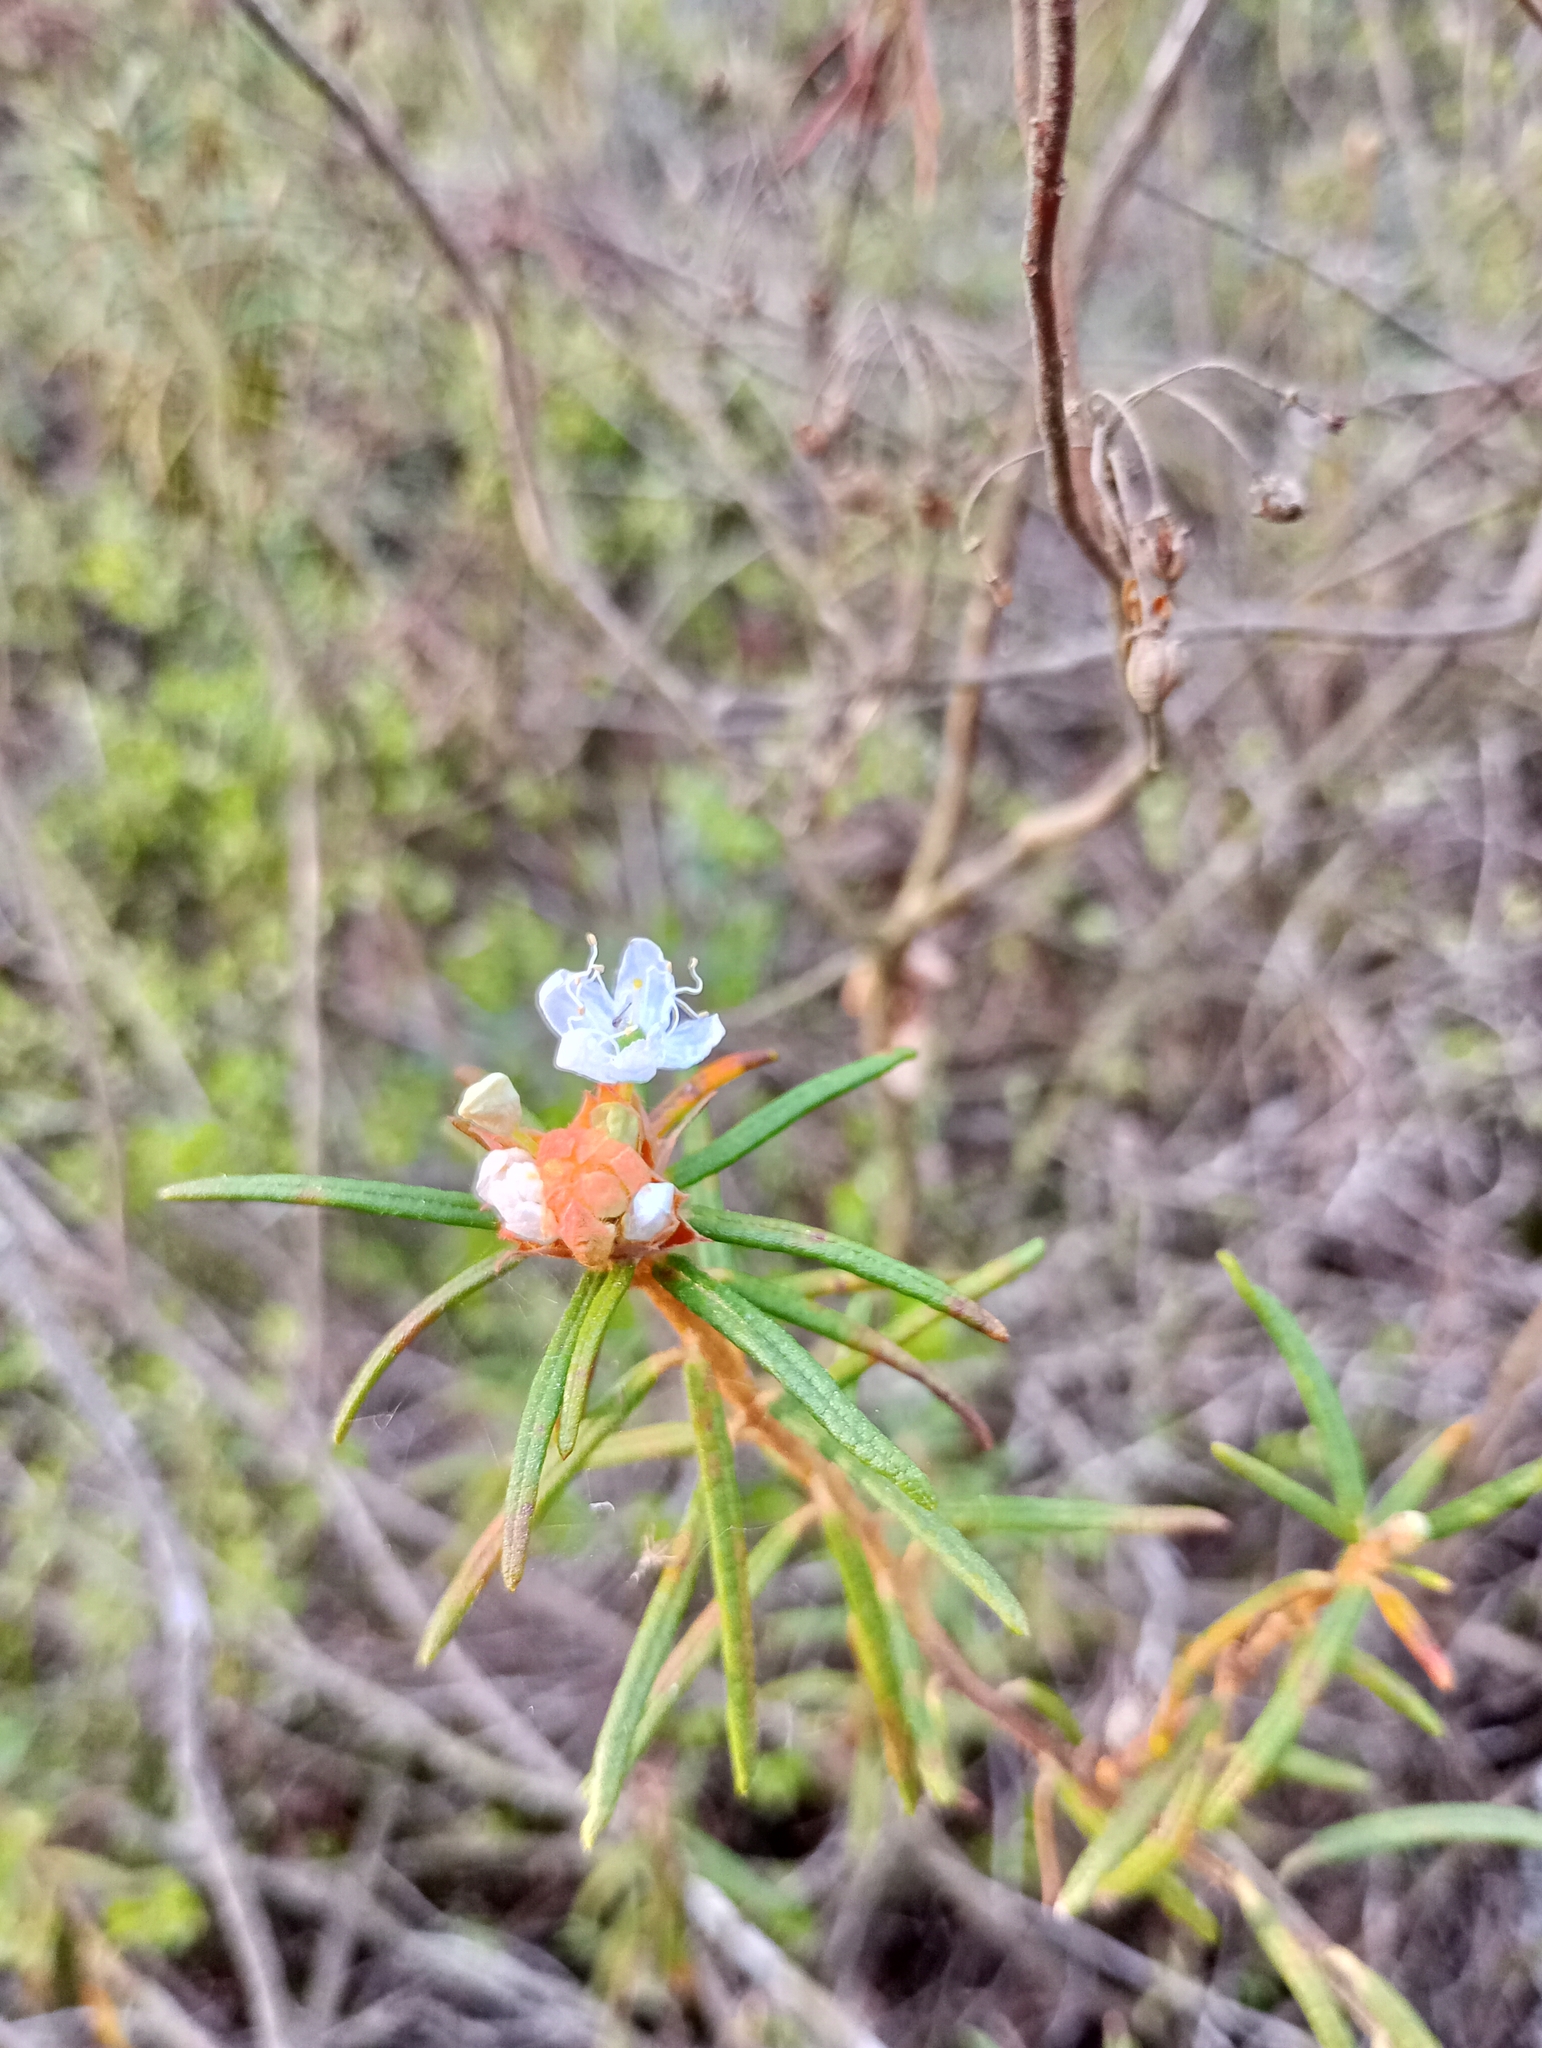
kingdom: Plantae
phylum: Tracheophyta
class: Magnoliopsida
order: Ericales
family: Ericaceae
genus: Rhododendron
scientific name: Rhododendron tomentosum
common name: Marsh labrador tea
